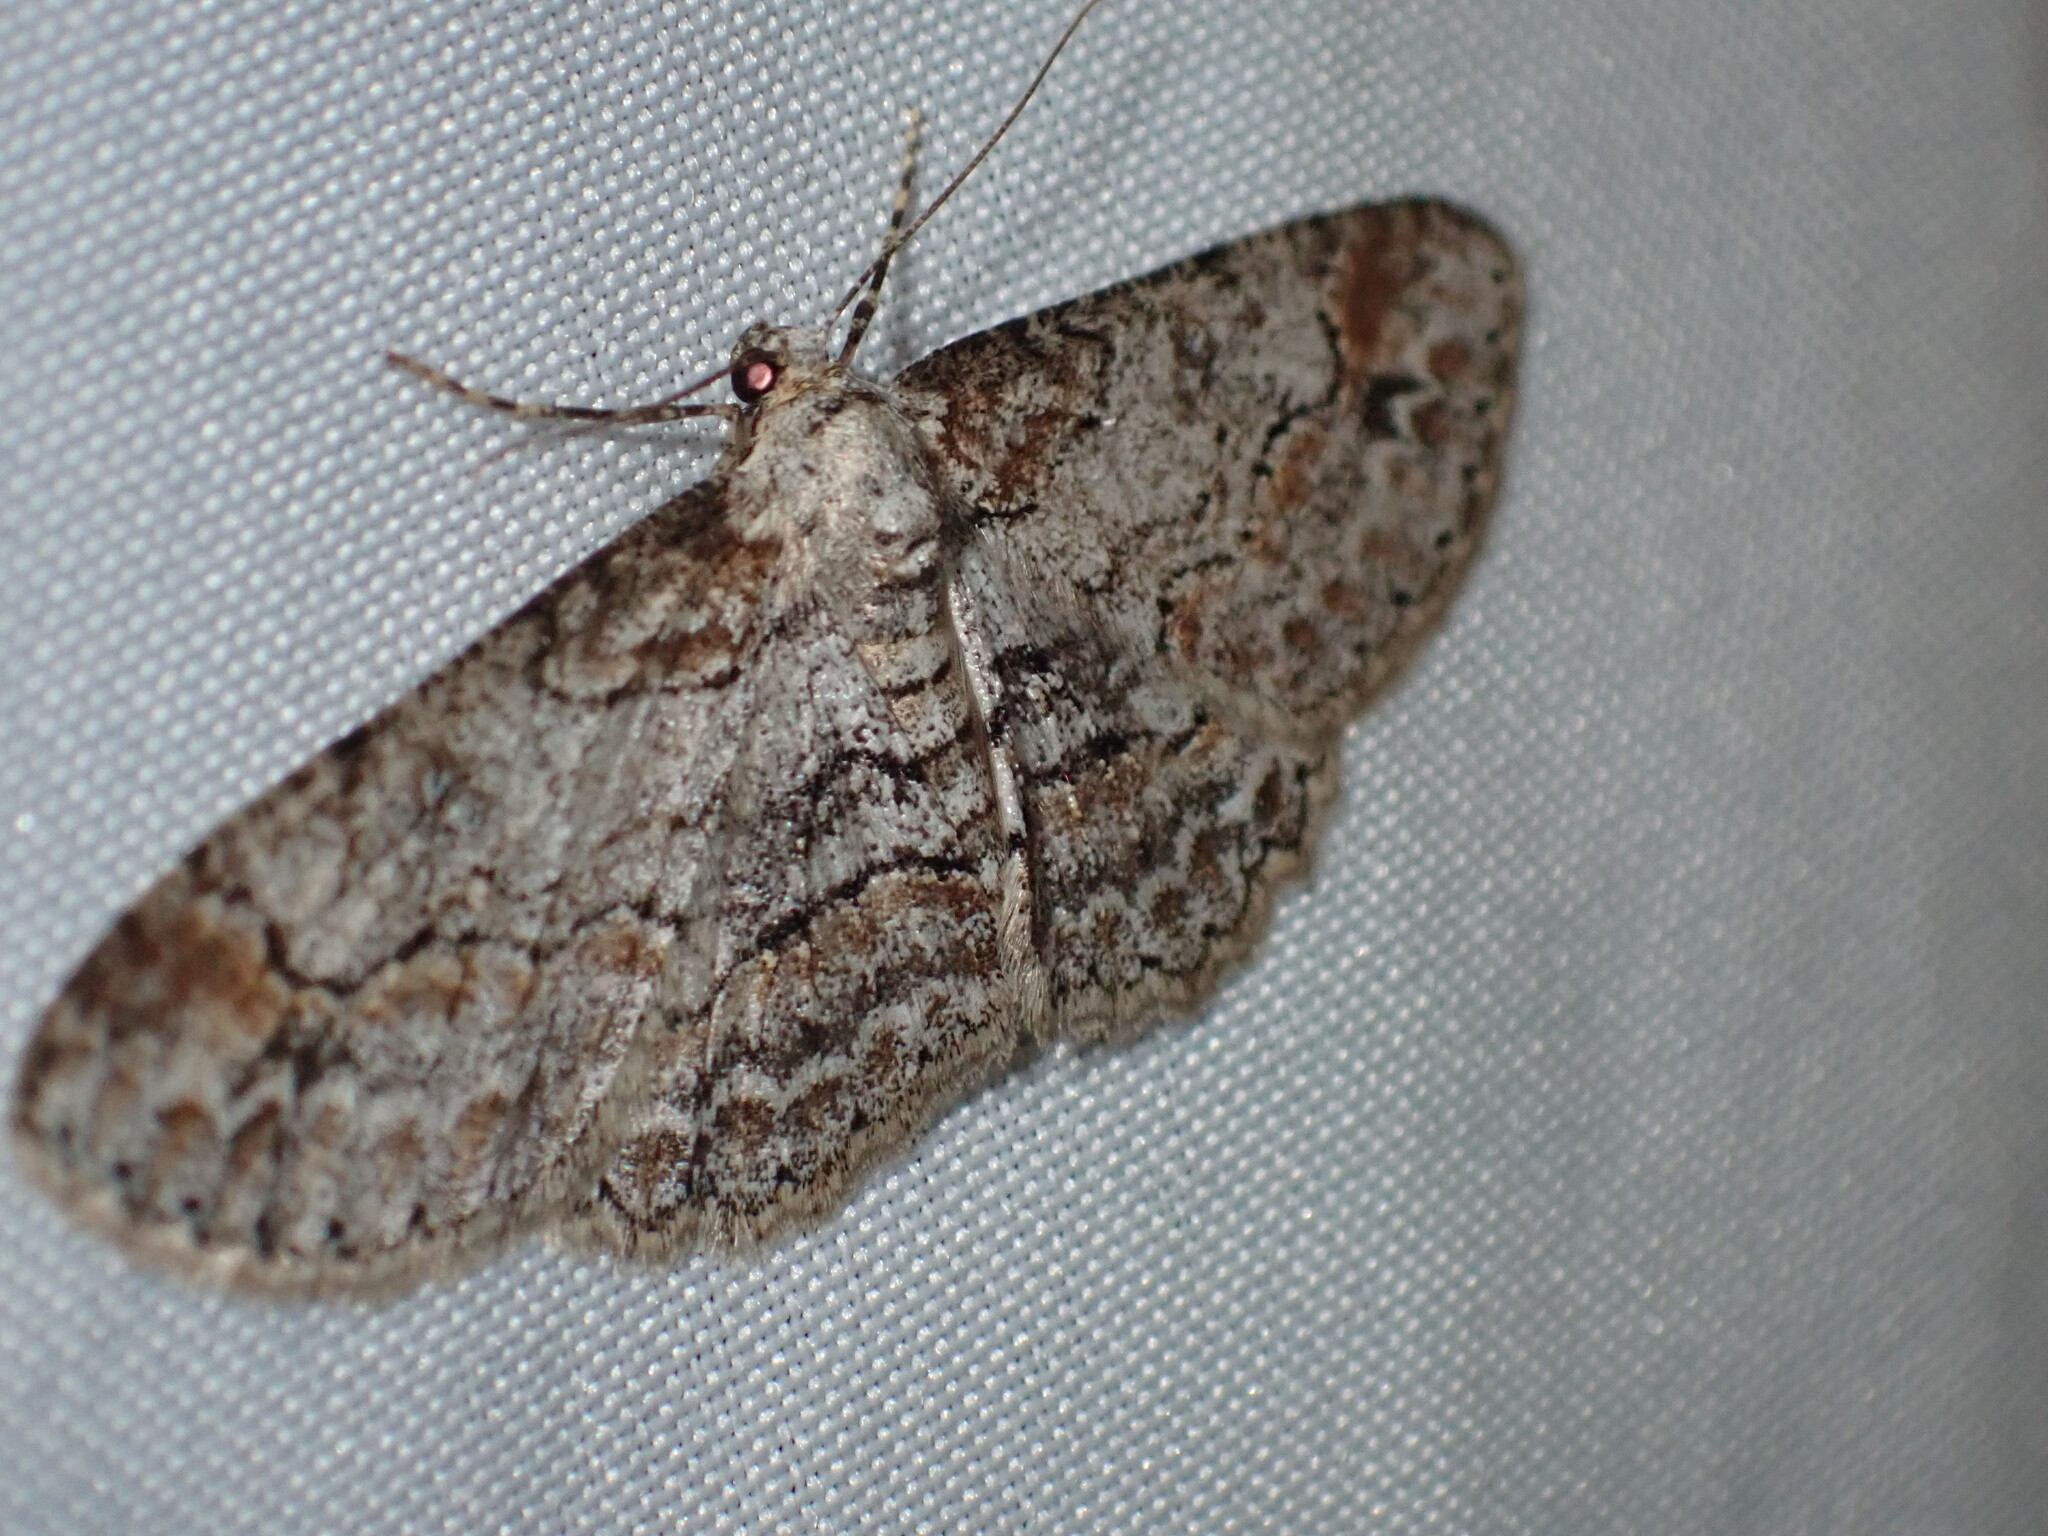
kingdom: Animalia
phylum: Arthropoda
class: Insecta
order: Lepidoptera
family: Geometridae
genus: Iridopsis
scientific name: Iridopsis emasculatum
